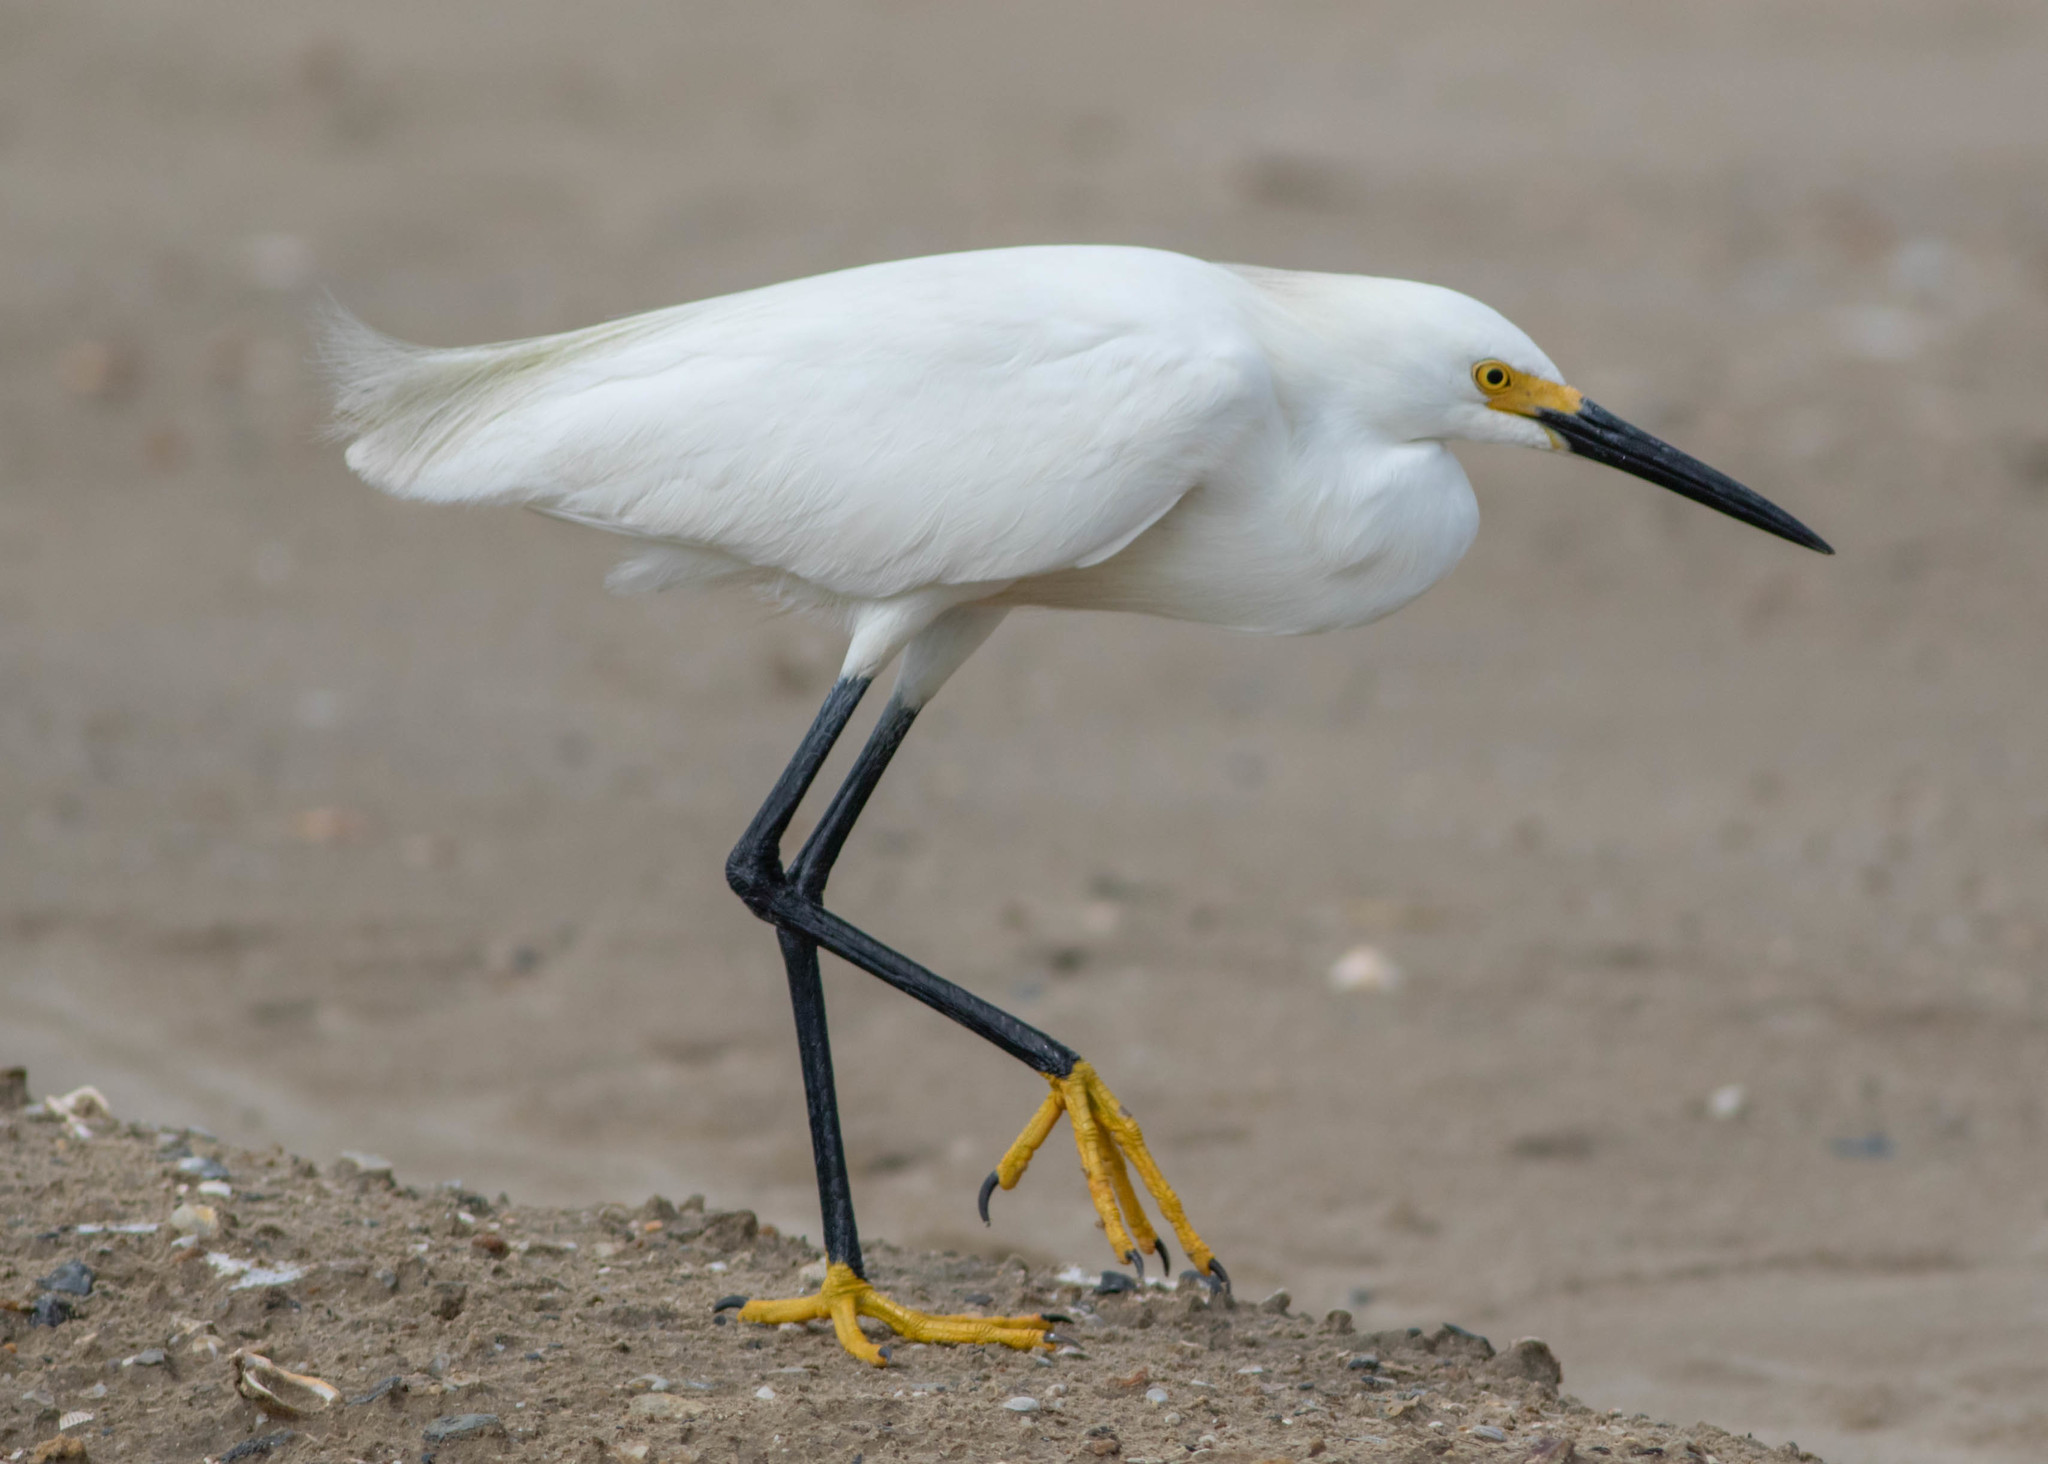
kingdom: Animalia
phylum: Chordata
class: Aves
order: Pelecaniformes
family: Ardeidae
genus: Egretta
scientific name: Egretta thula
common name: Snowy egret
